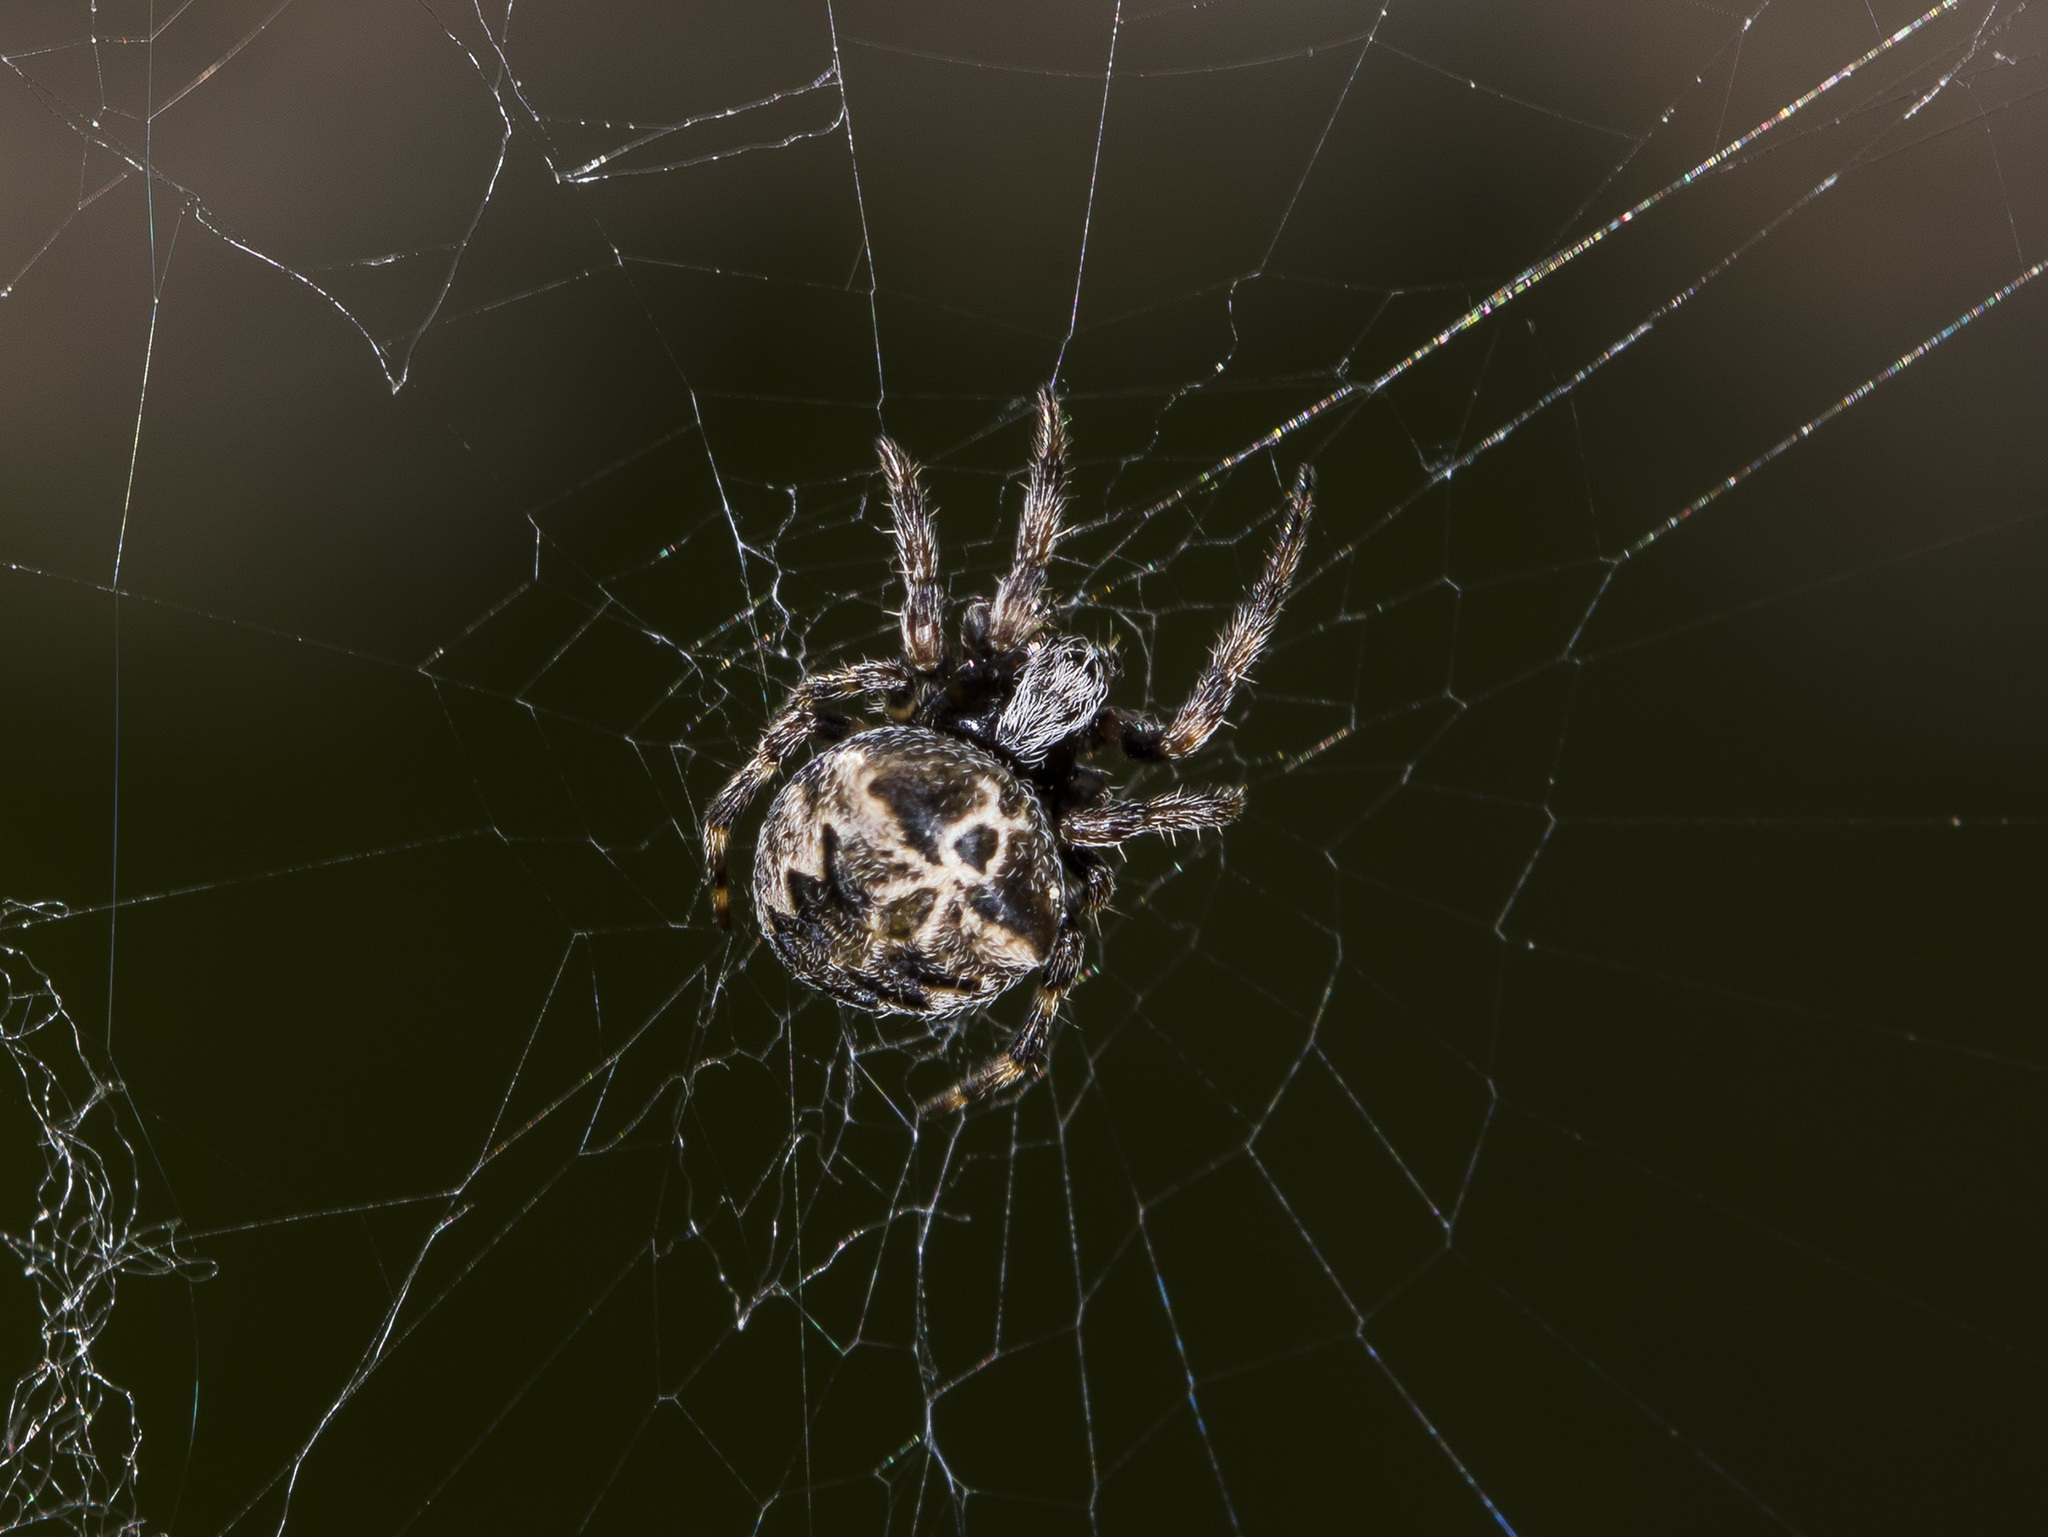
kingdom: Animalia
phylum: Arthropoda
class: Arachnida
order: Araneae
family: Araneidae
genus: Araneus
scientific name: Araneus grossus
